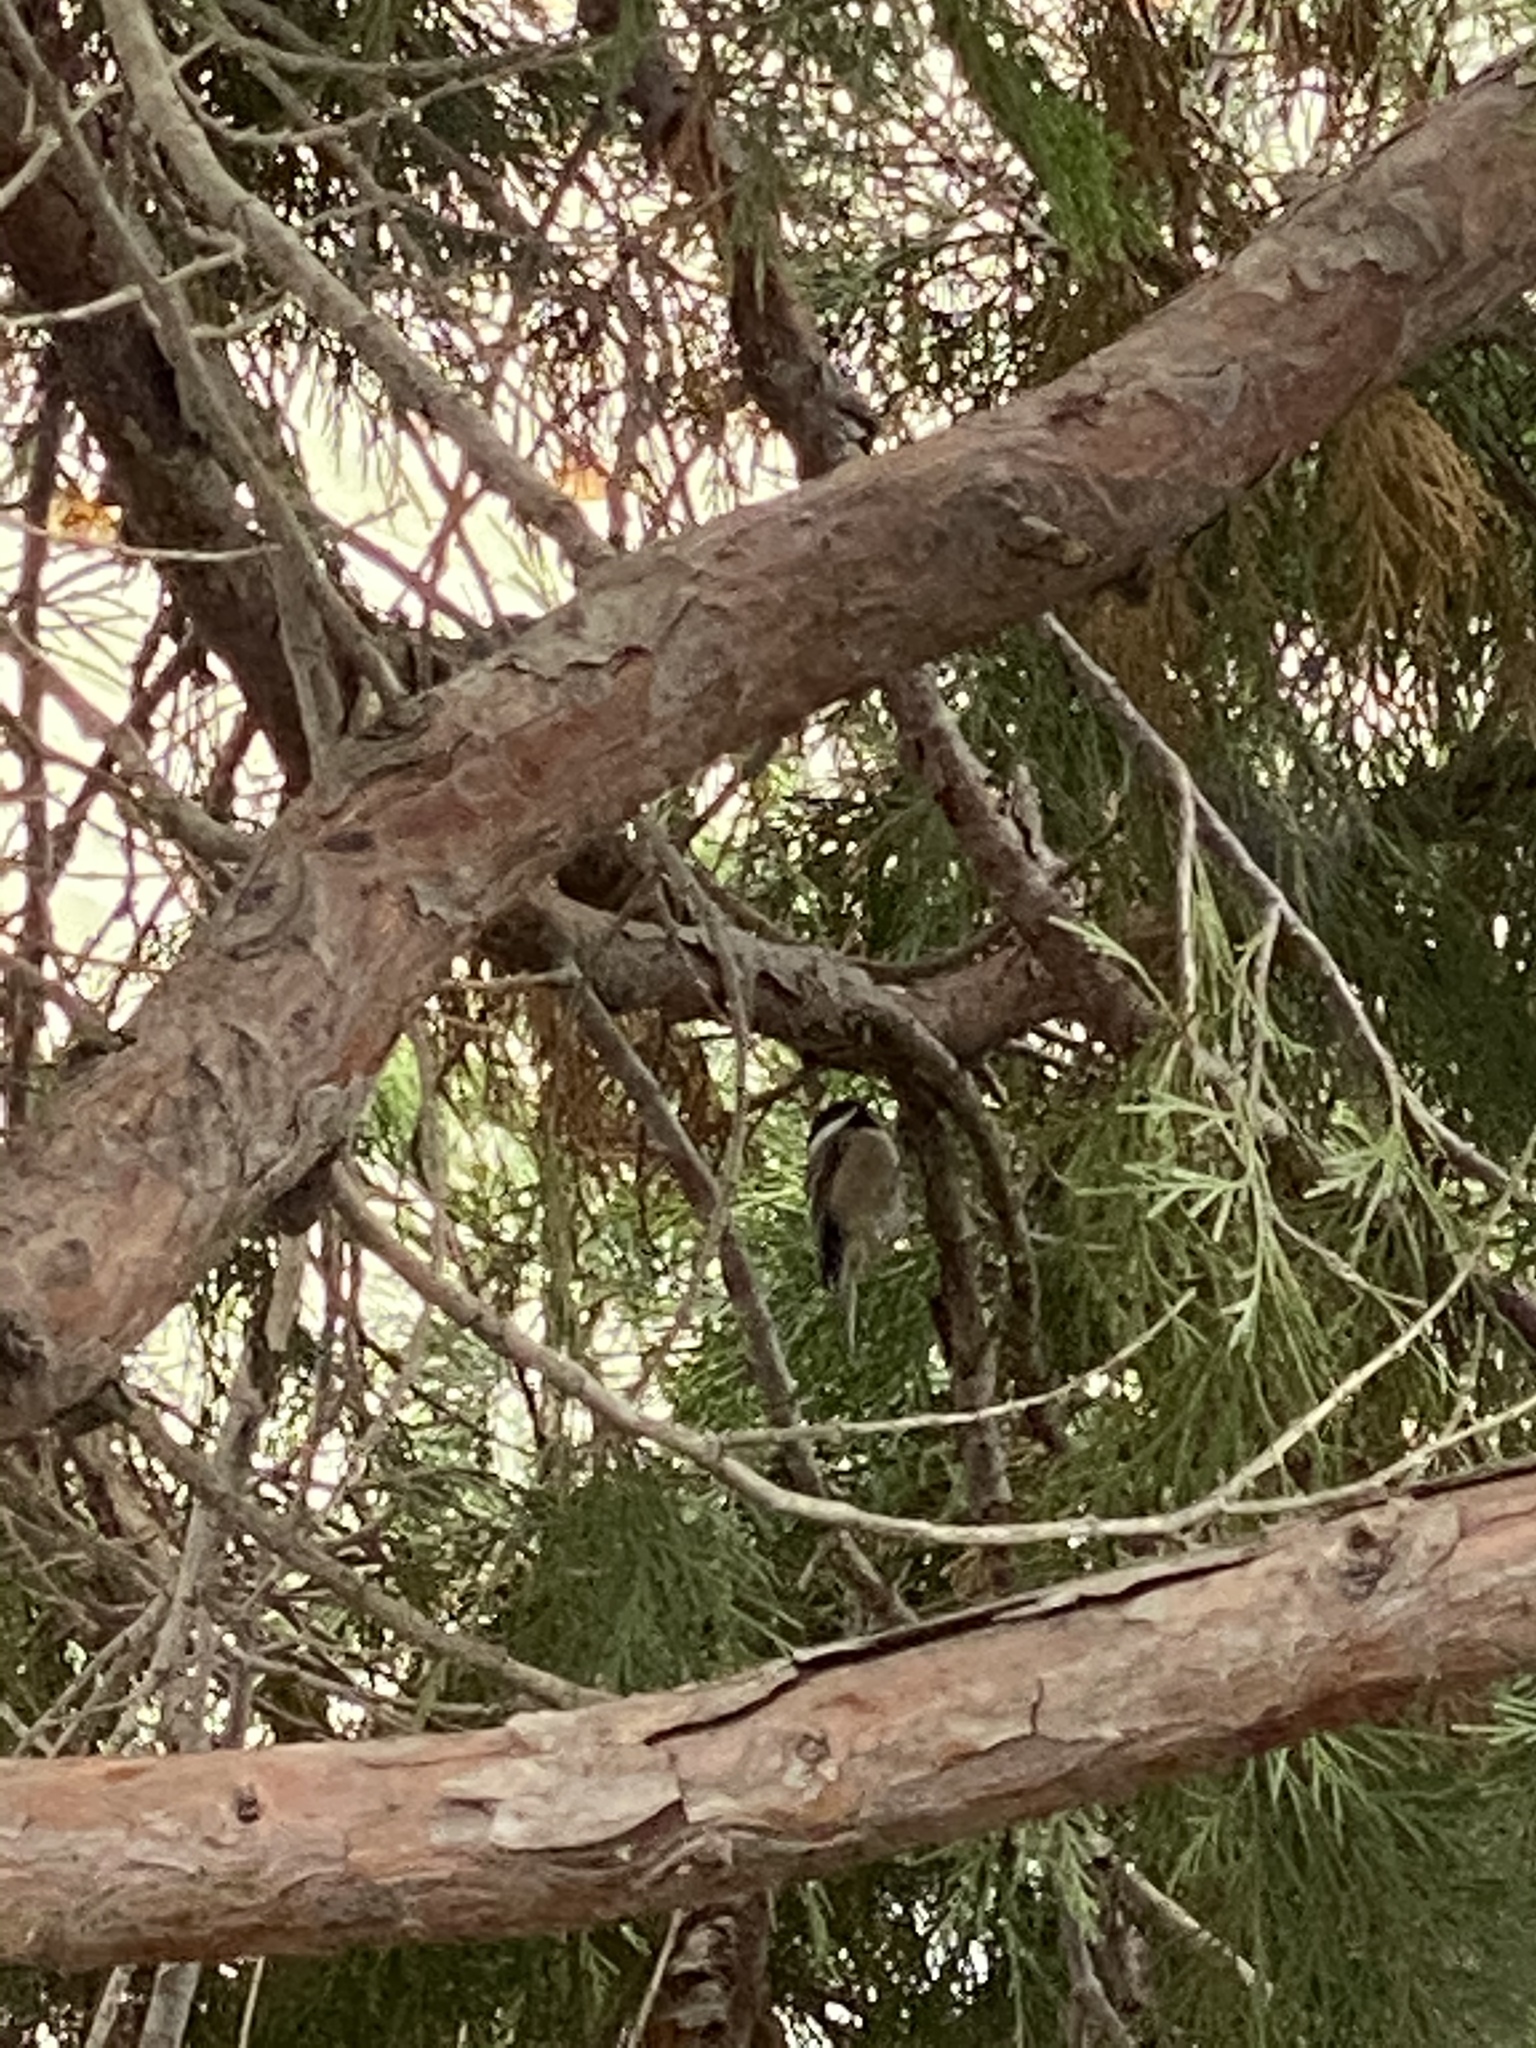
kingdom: Animalia
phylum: Chordata
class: Aves
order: Passeriformes
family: Paridae
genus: Poecile
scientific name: Poecile atricapillus
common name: Black-capped chickadee
